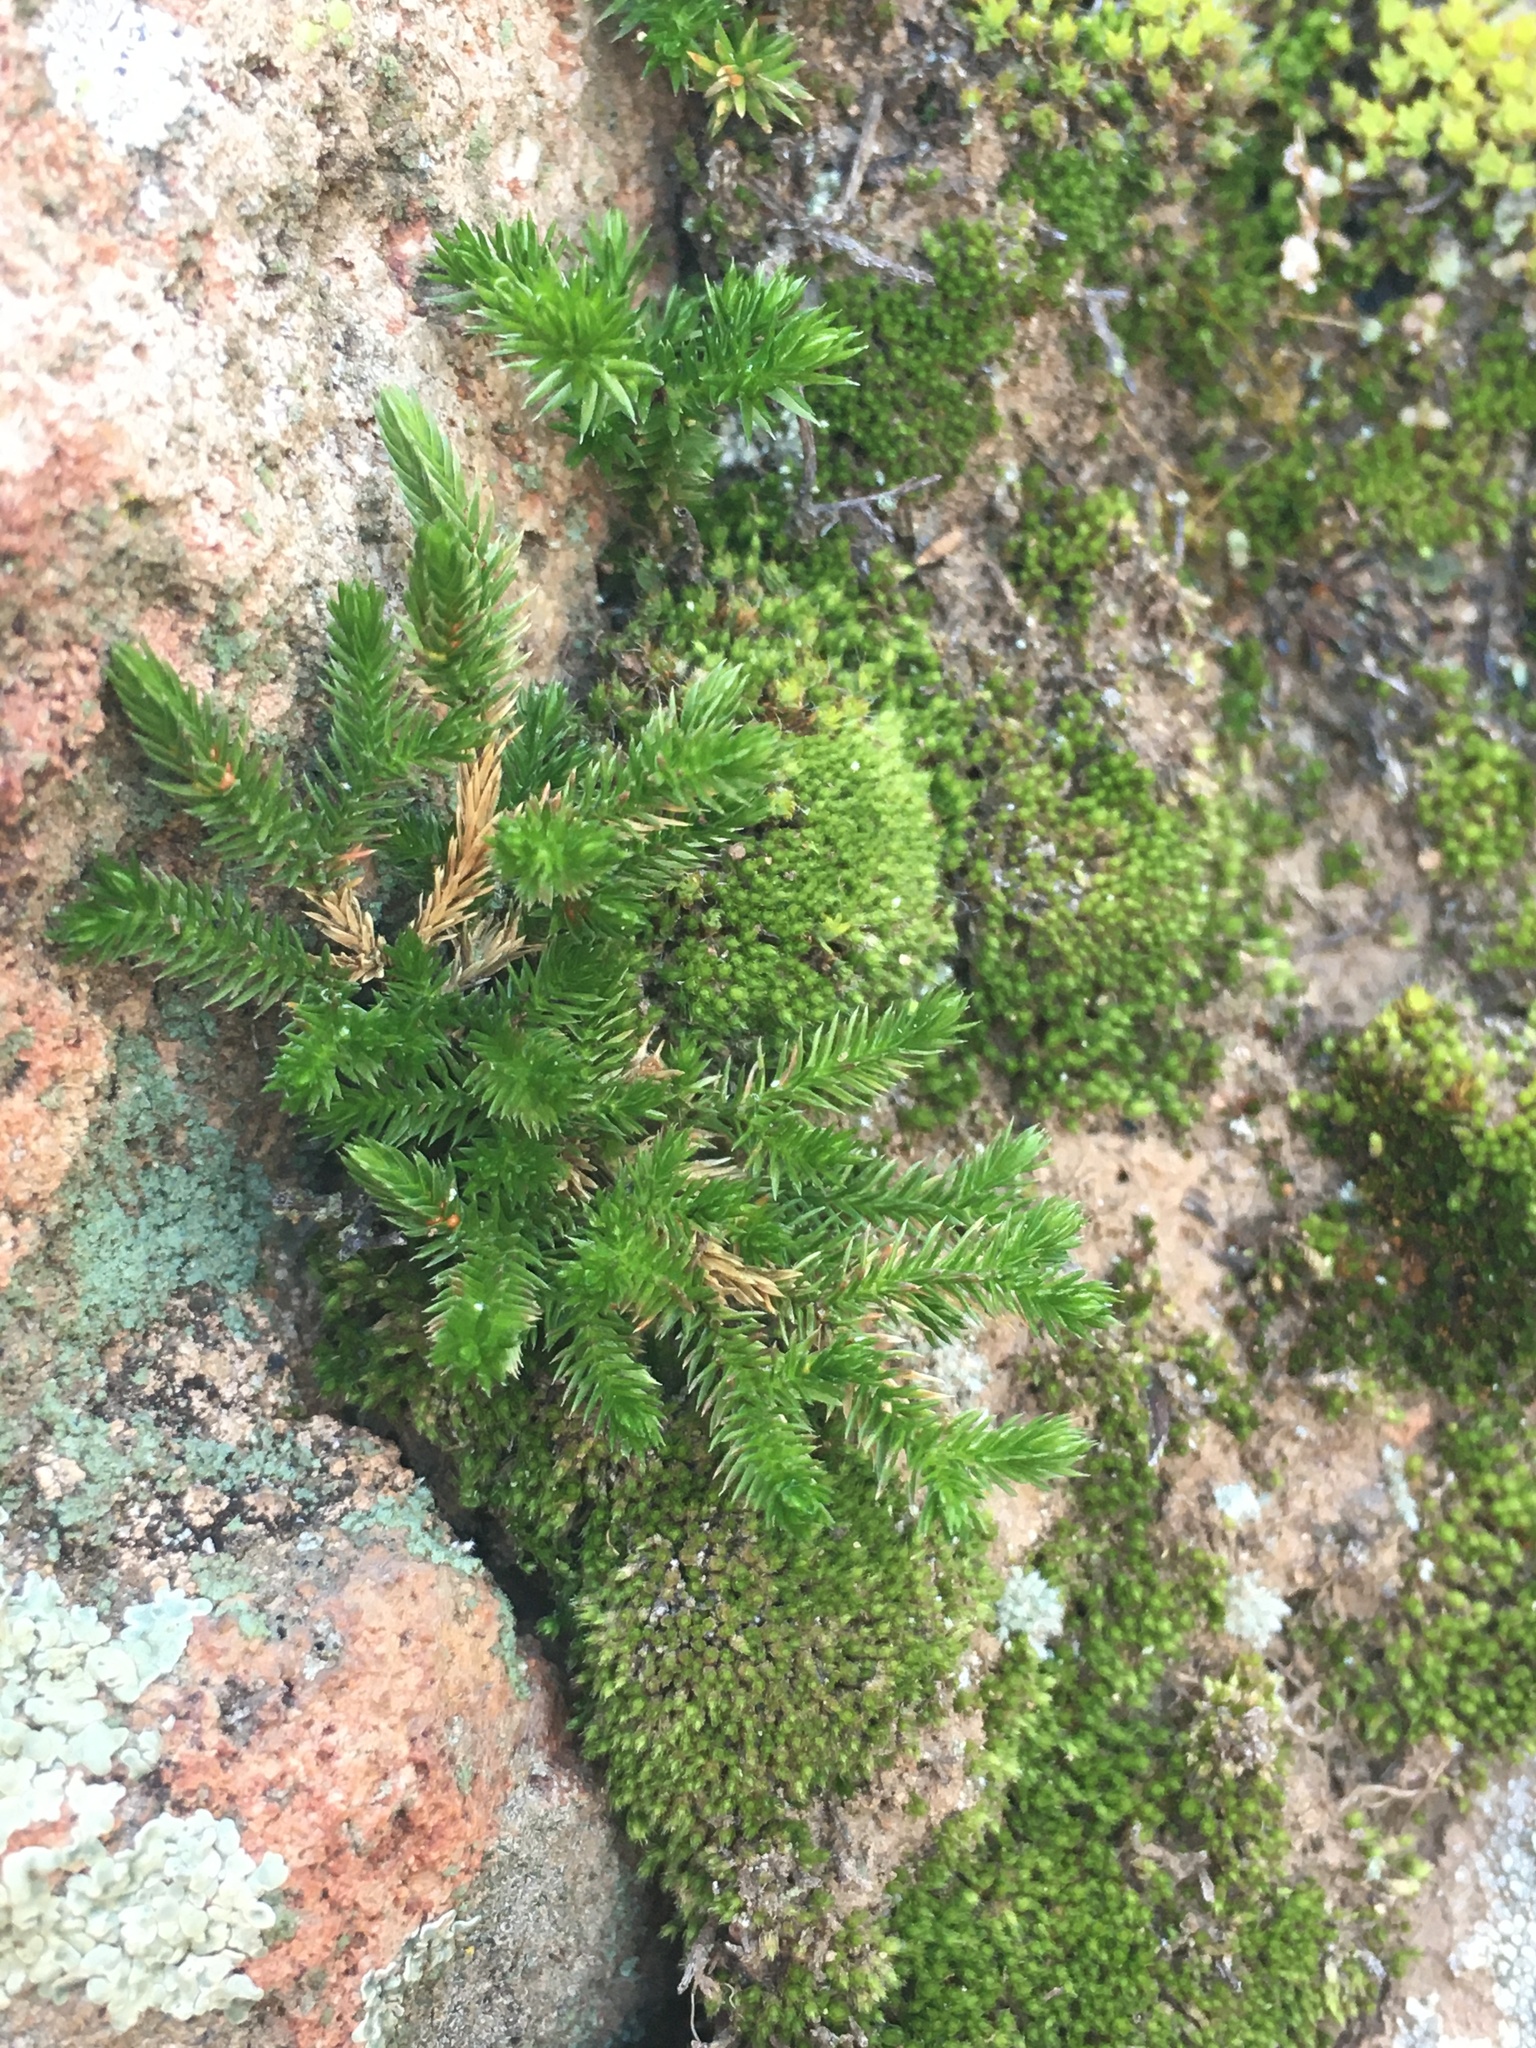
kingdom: Plantae
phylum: Tracheophyta
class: Lycopodiopsida
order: Selaginellales
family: Selaginellaceae
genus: Selaginella
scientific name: Selaginella bigelovii
